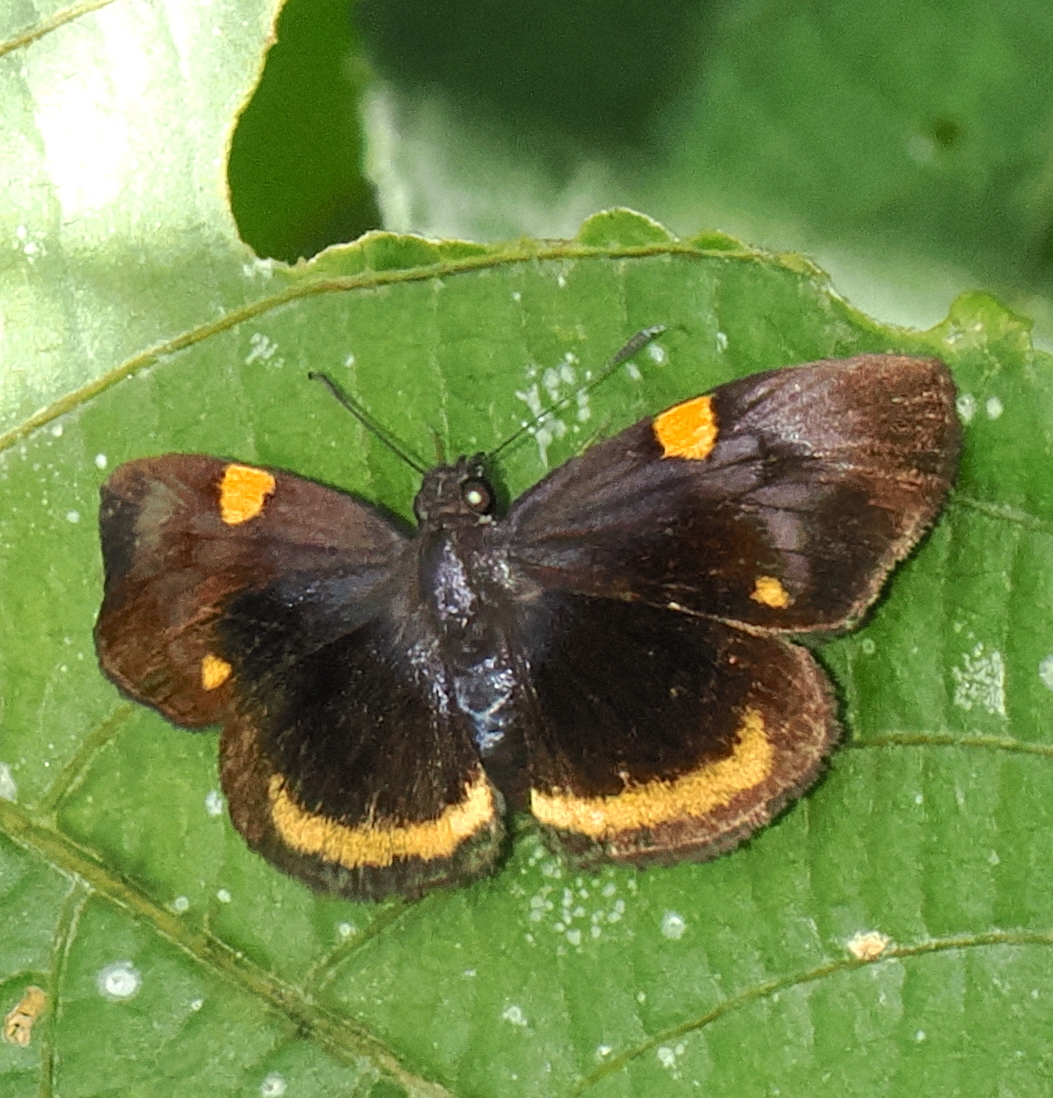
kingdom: Animalia
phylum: Arthropoda
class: Insecta
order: Lepidoptera
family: Hesperiidae
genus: Charidia
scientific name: Charidia lucaria
